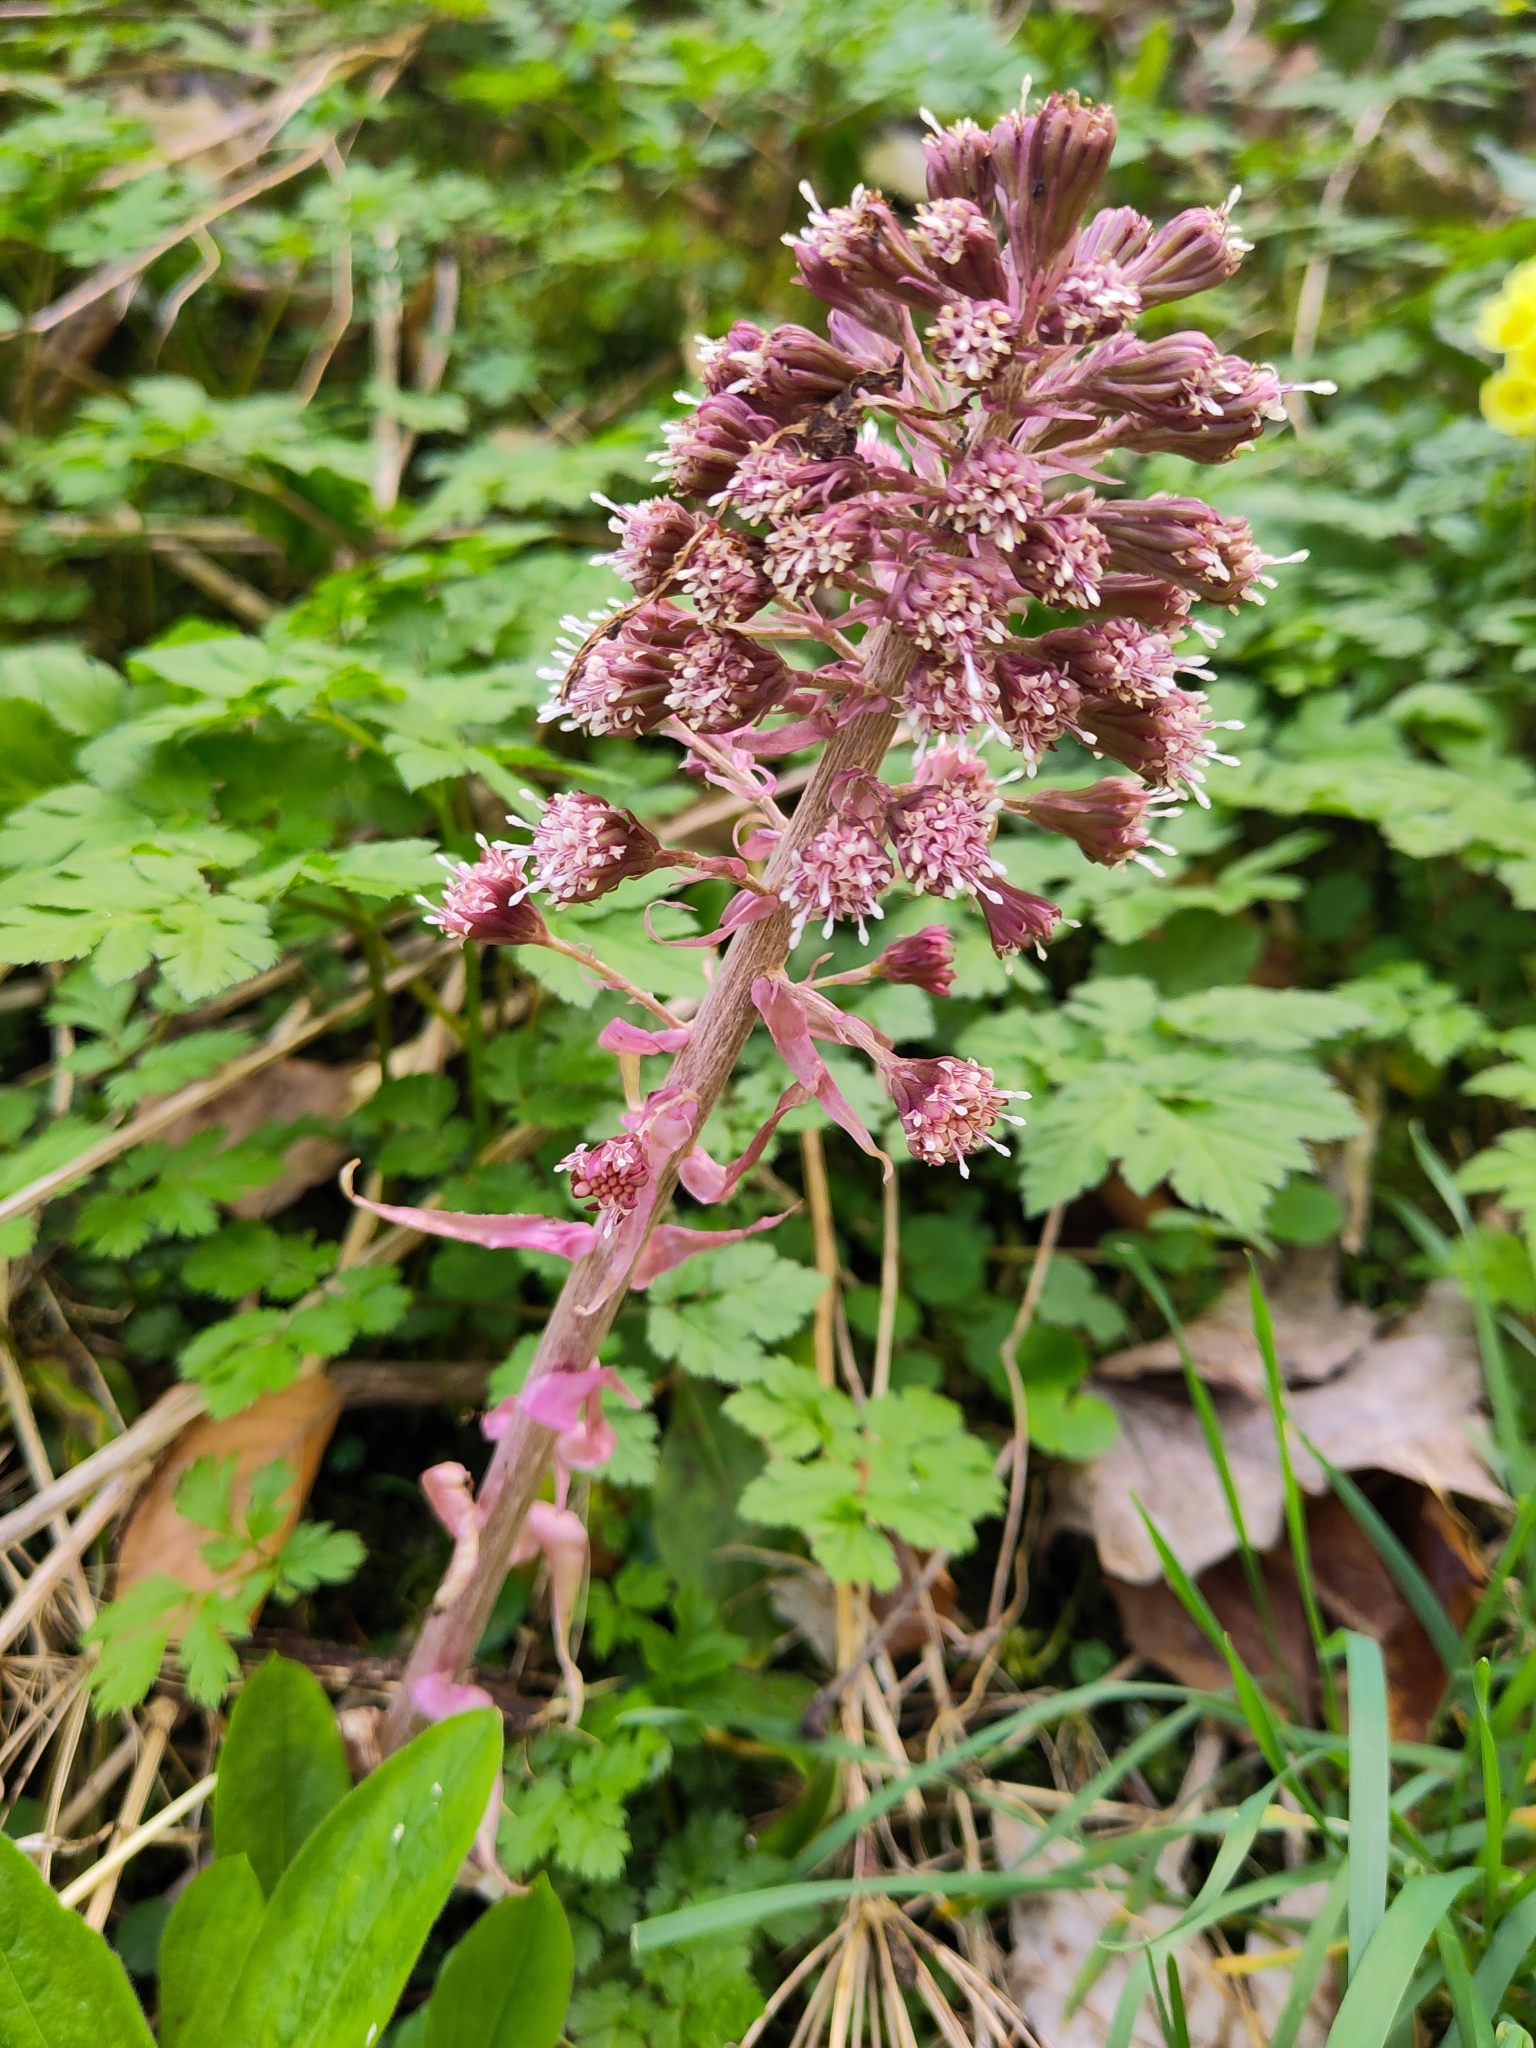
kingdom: Plantae
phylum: Tracheophyta
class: Magnoliopsida
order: Asterales
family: Asteraceae
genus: Petasites
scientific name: Petasites hybridus
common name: Butterbur
